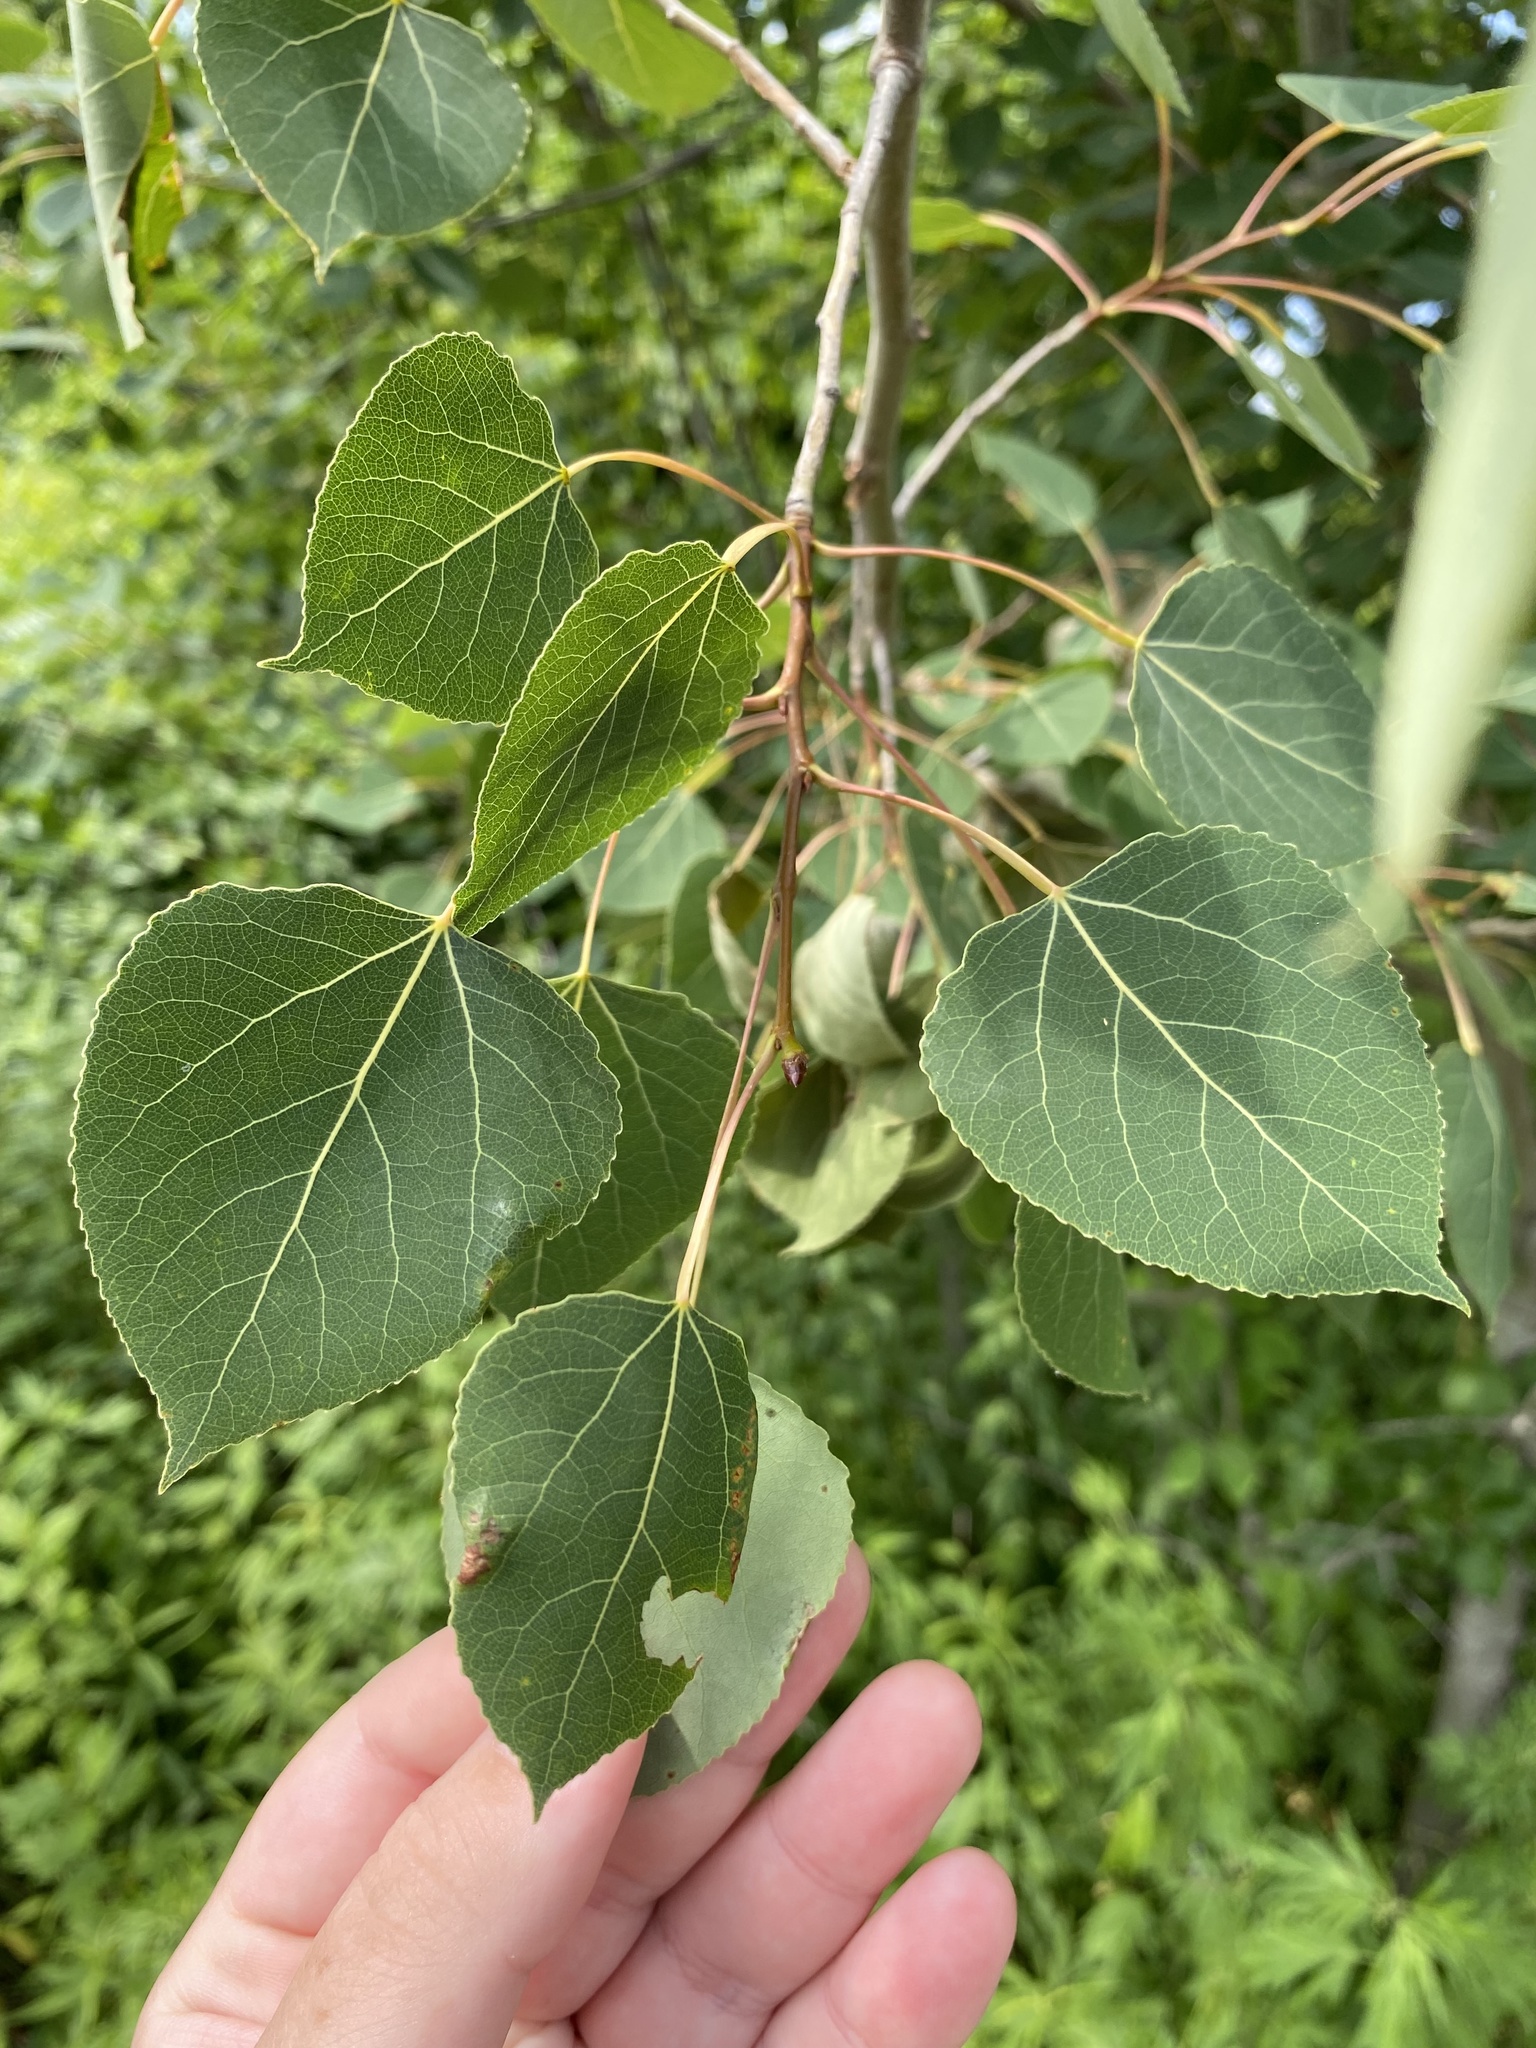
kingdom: Plantae
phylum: Tracheophyta
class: Magnoliopsida
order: Malpighiales
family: Salicaceae
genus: Populus
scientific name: Populus tremuloides
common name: Quaking aspen
